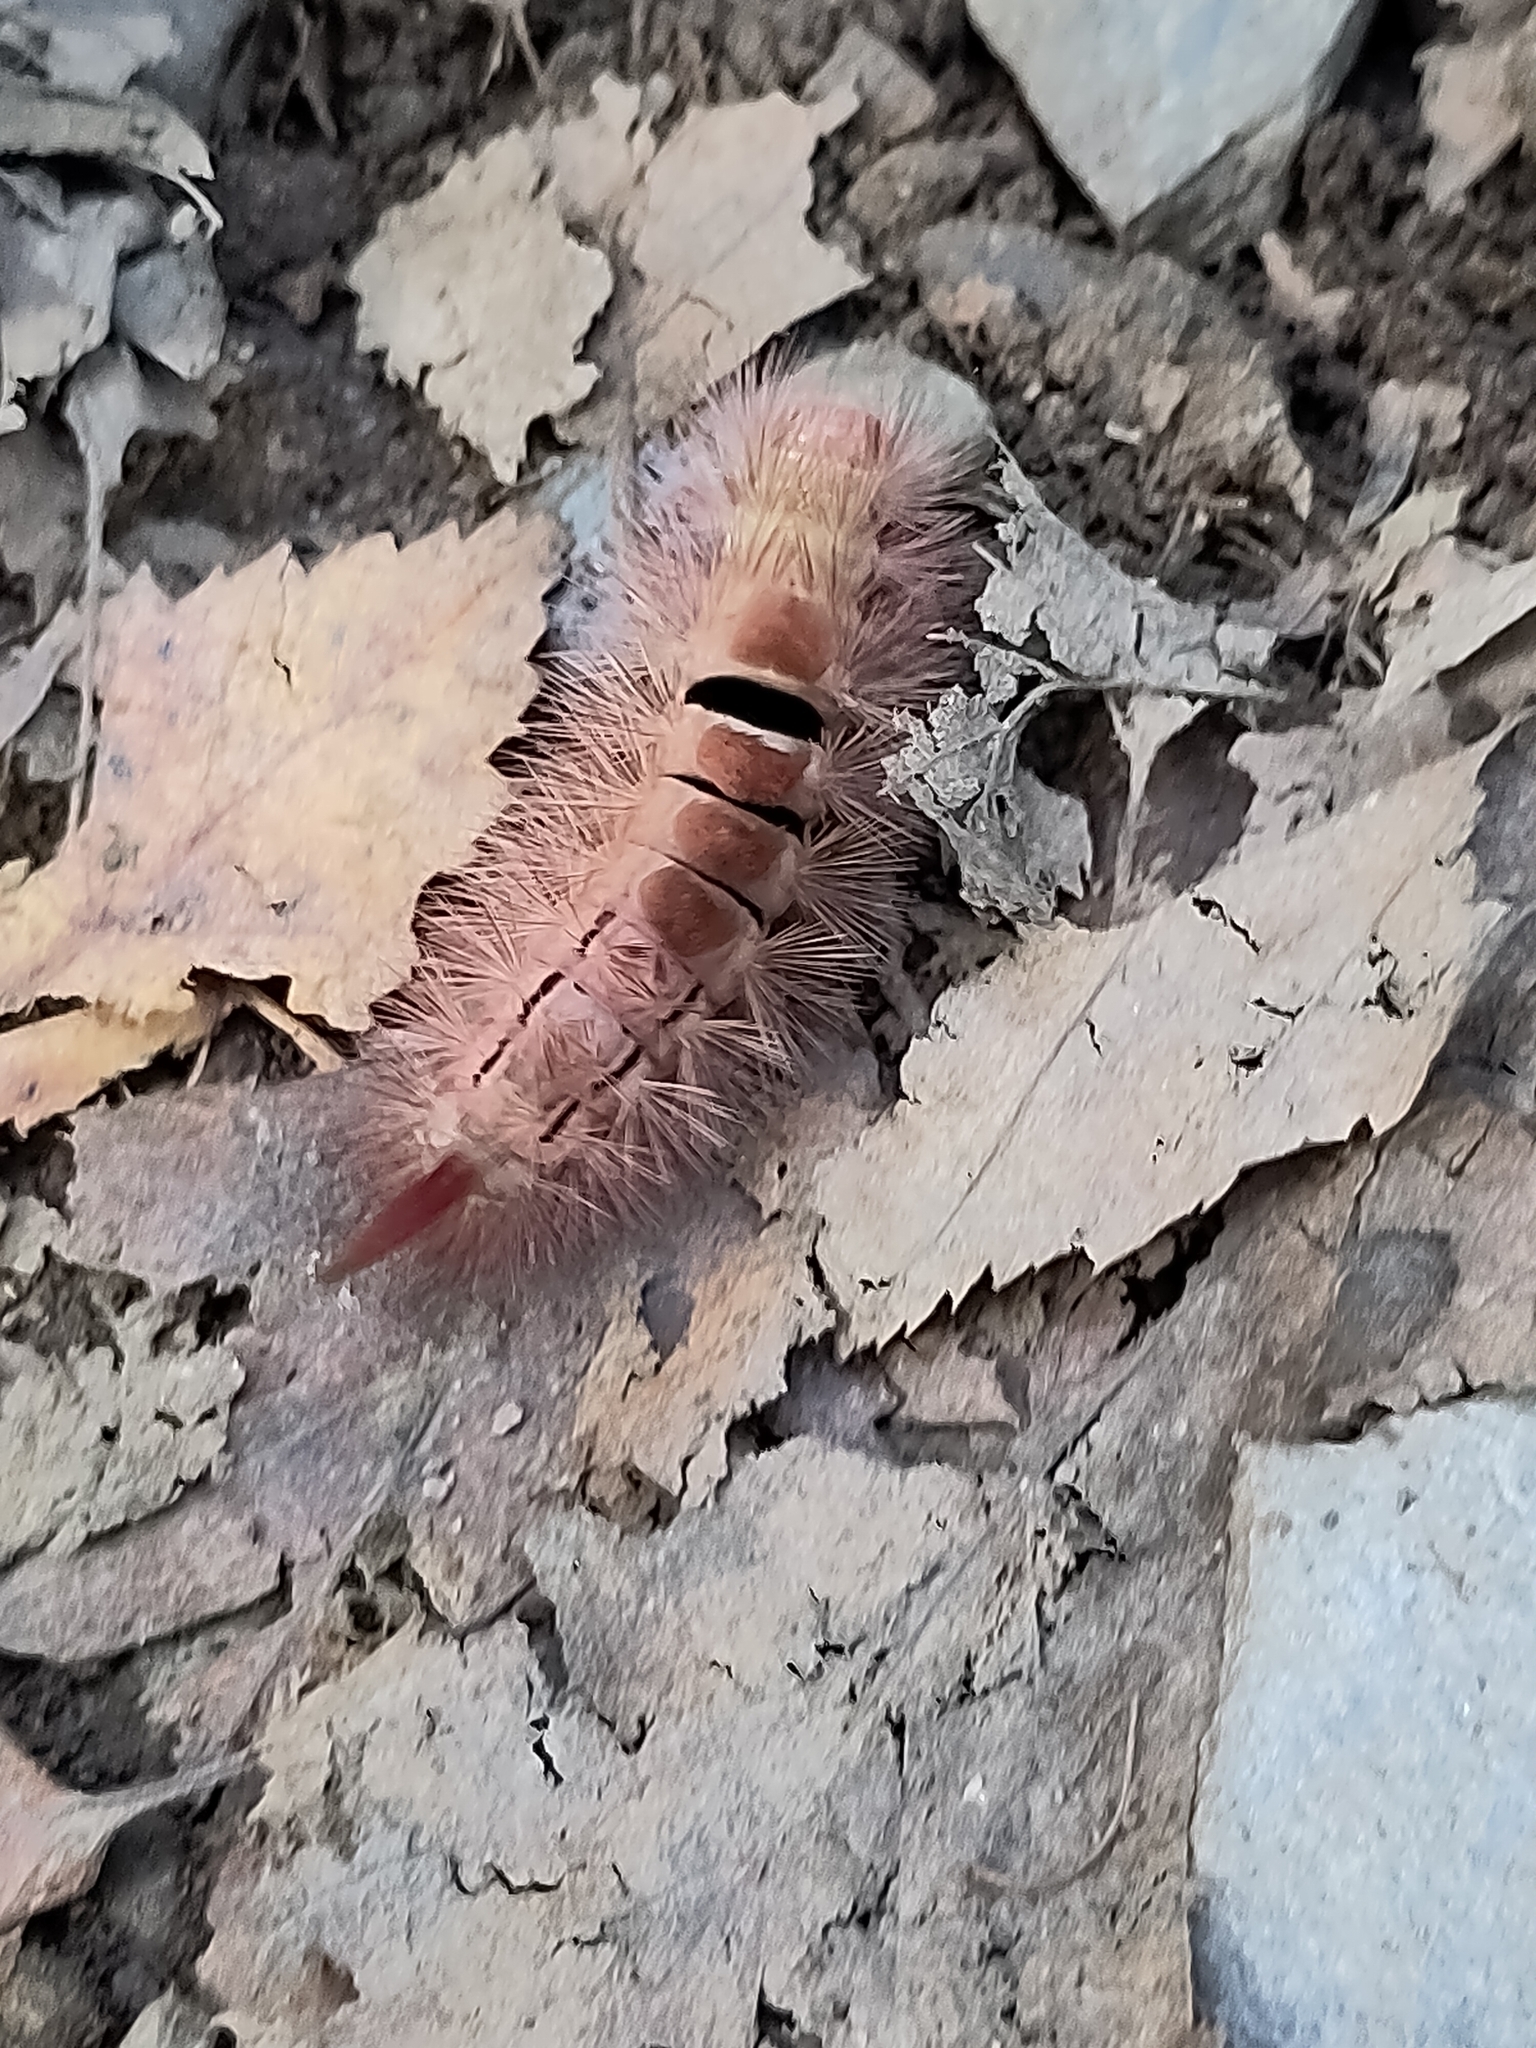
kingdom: Animalia
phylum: Arthropoda
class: Insecta
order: Lepidoptera
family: Erebidae
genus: Calliteara
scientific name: Calliteara pudibunda
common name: Pale tussock
